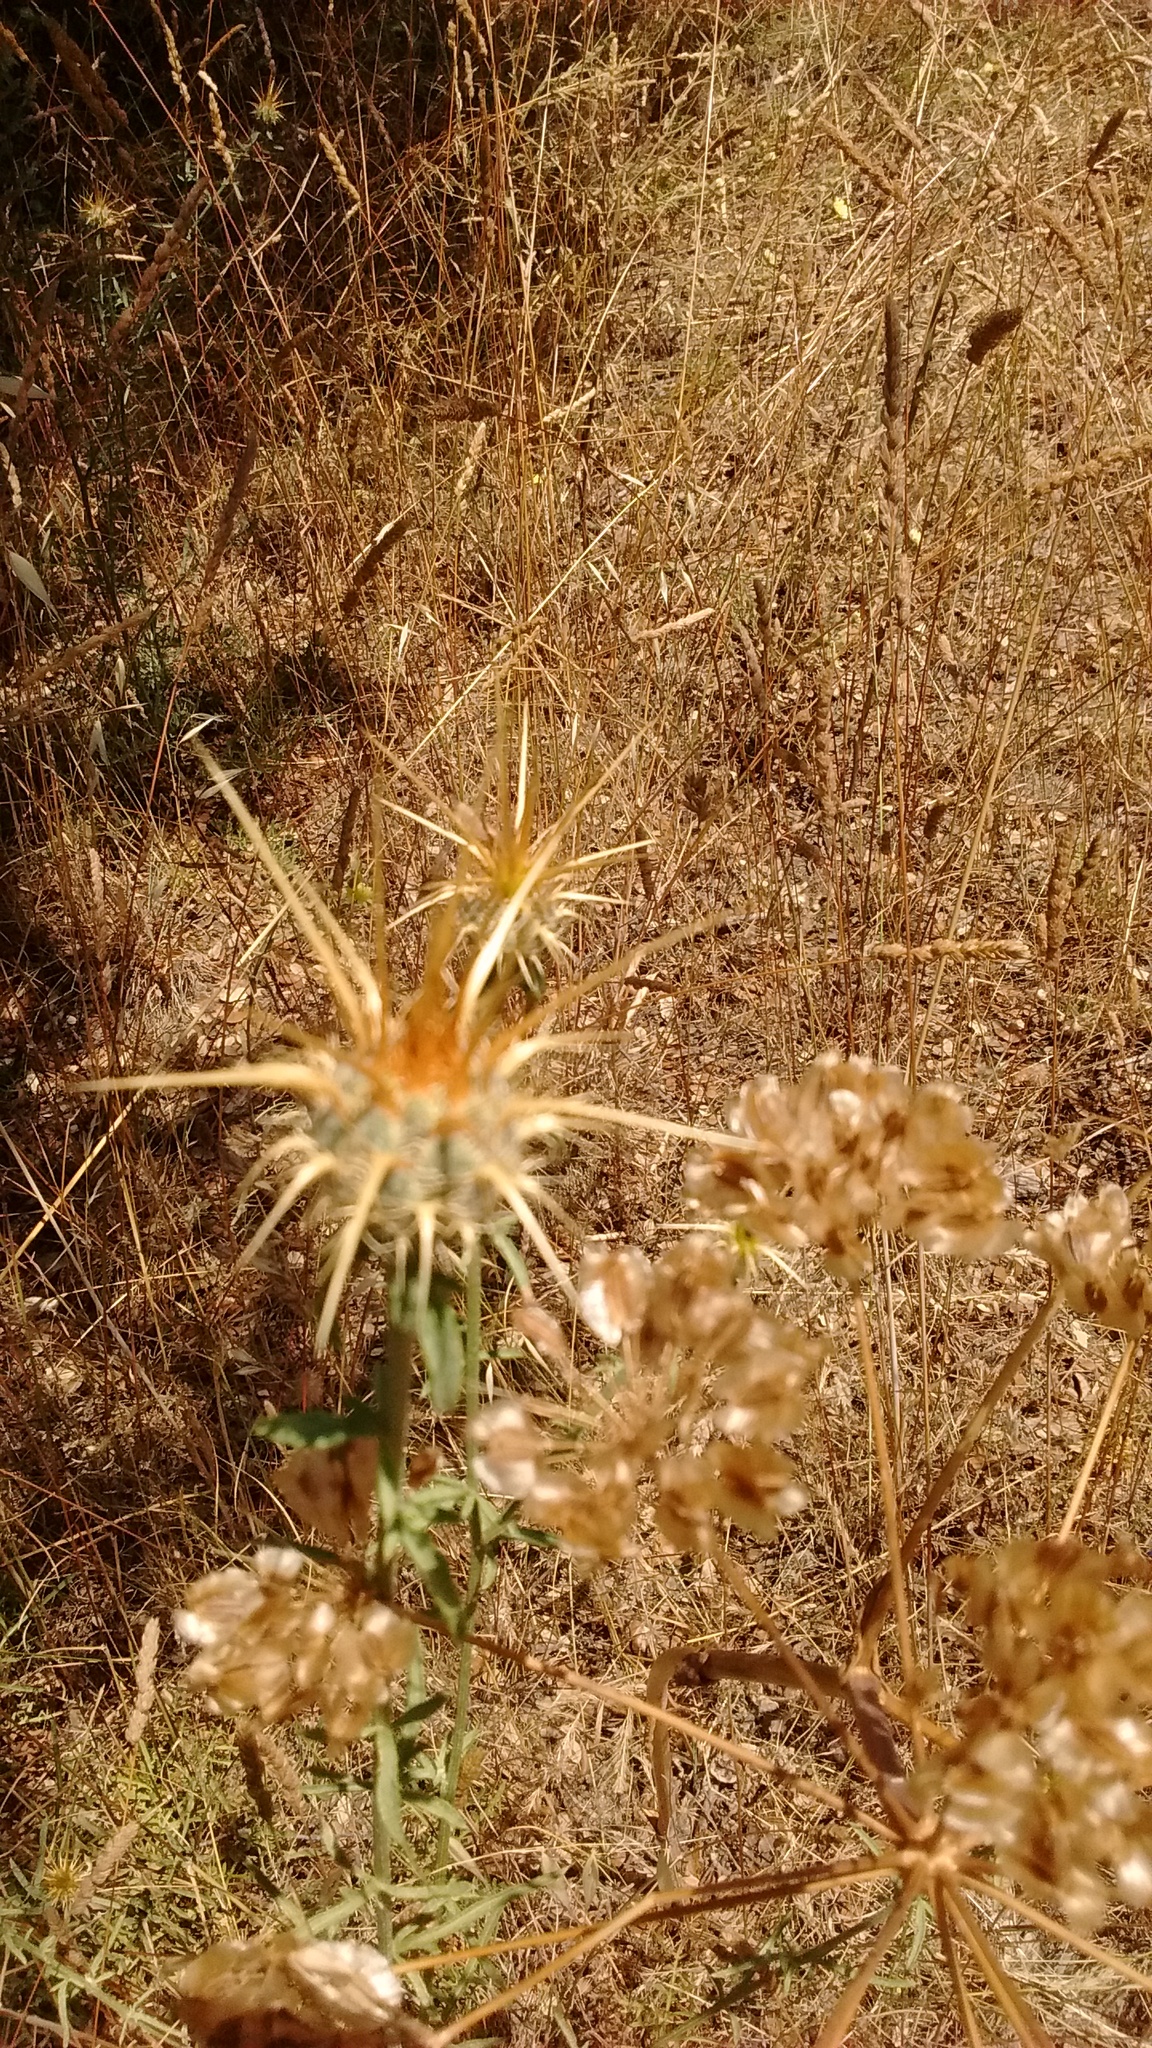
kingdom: Plantae
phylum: Tracheophyta
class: Magnoliopsida
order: Asterales
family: Asteraceae
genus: Centaurea
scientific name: Centaurea ornata
